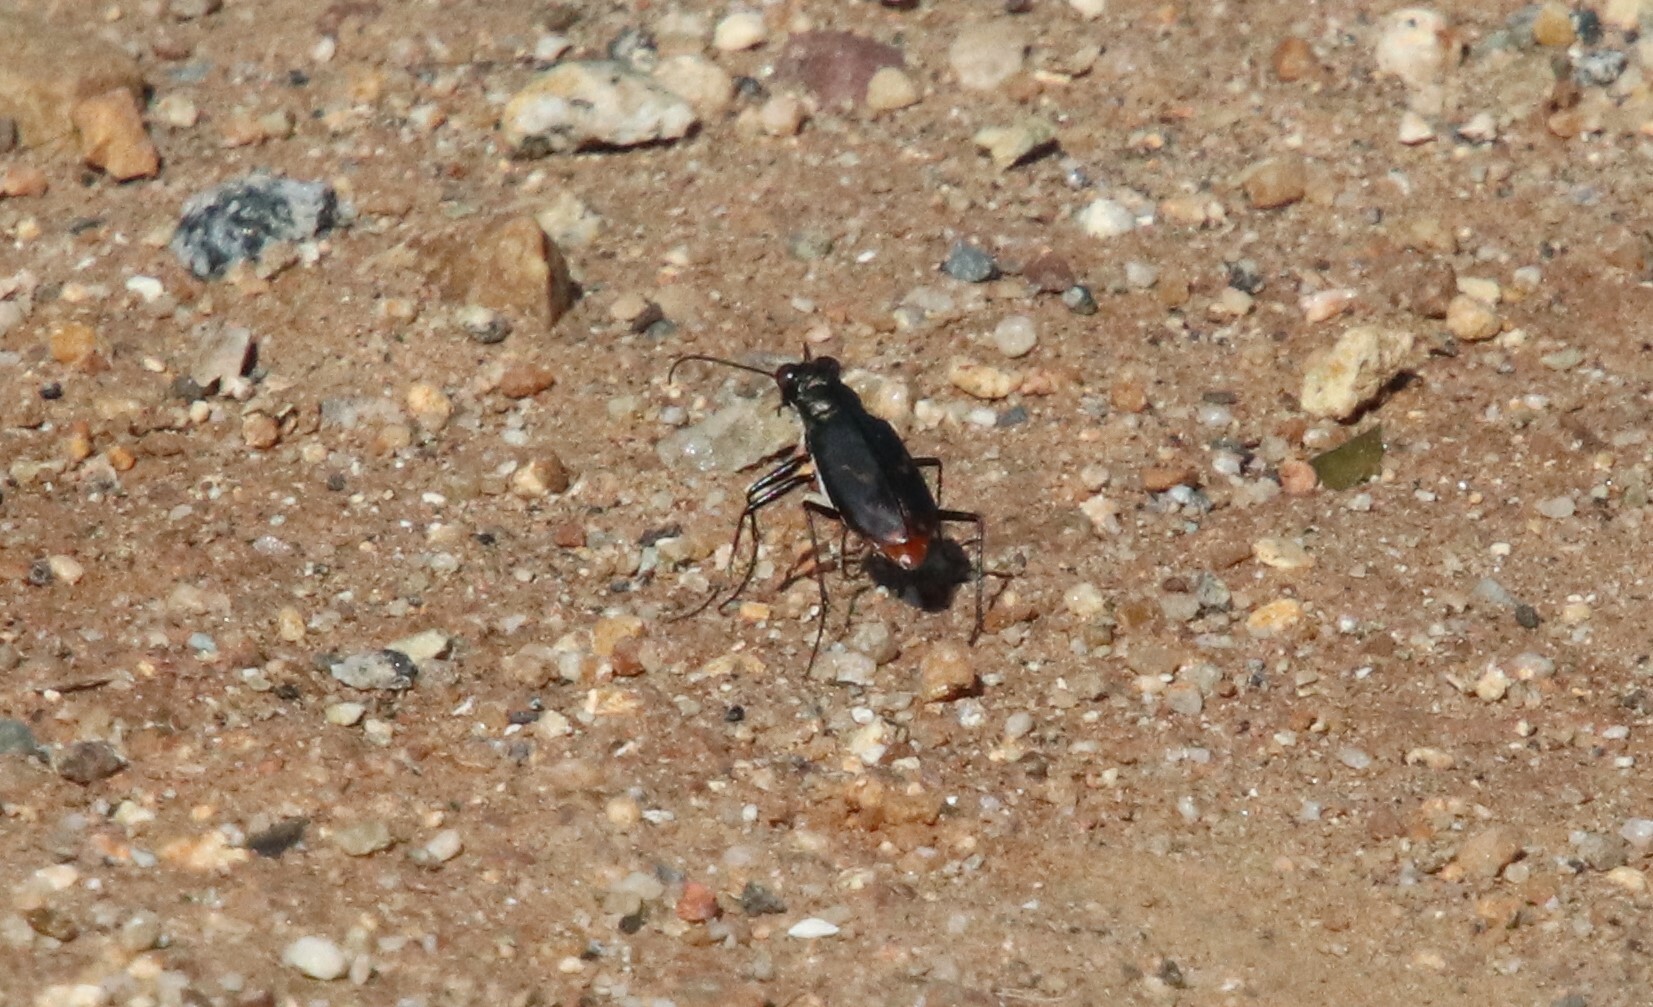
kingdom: Animalia
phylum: Arthropoda
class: Insecta
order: Coleoptera
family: Carabidae
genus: Cicindela
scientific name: Cicindela hemorrhagica
